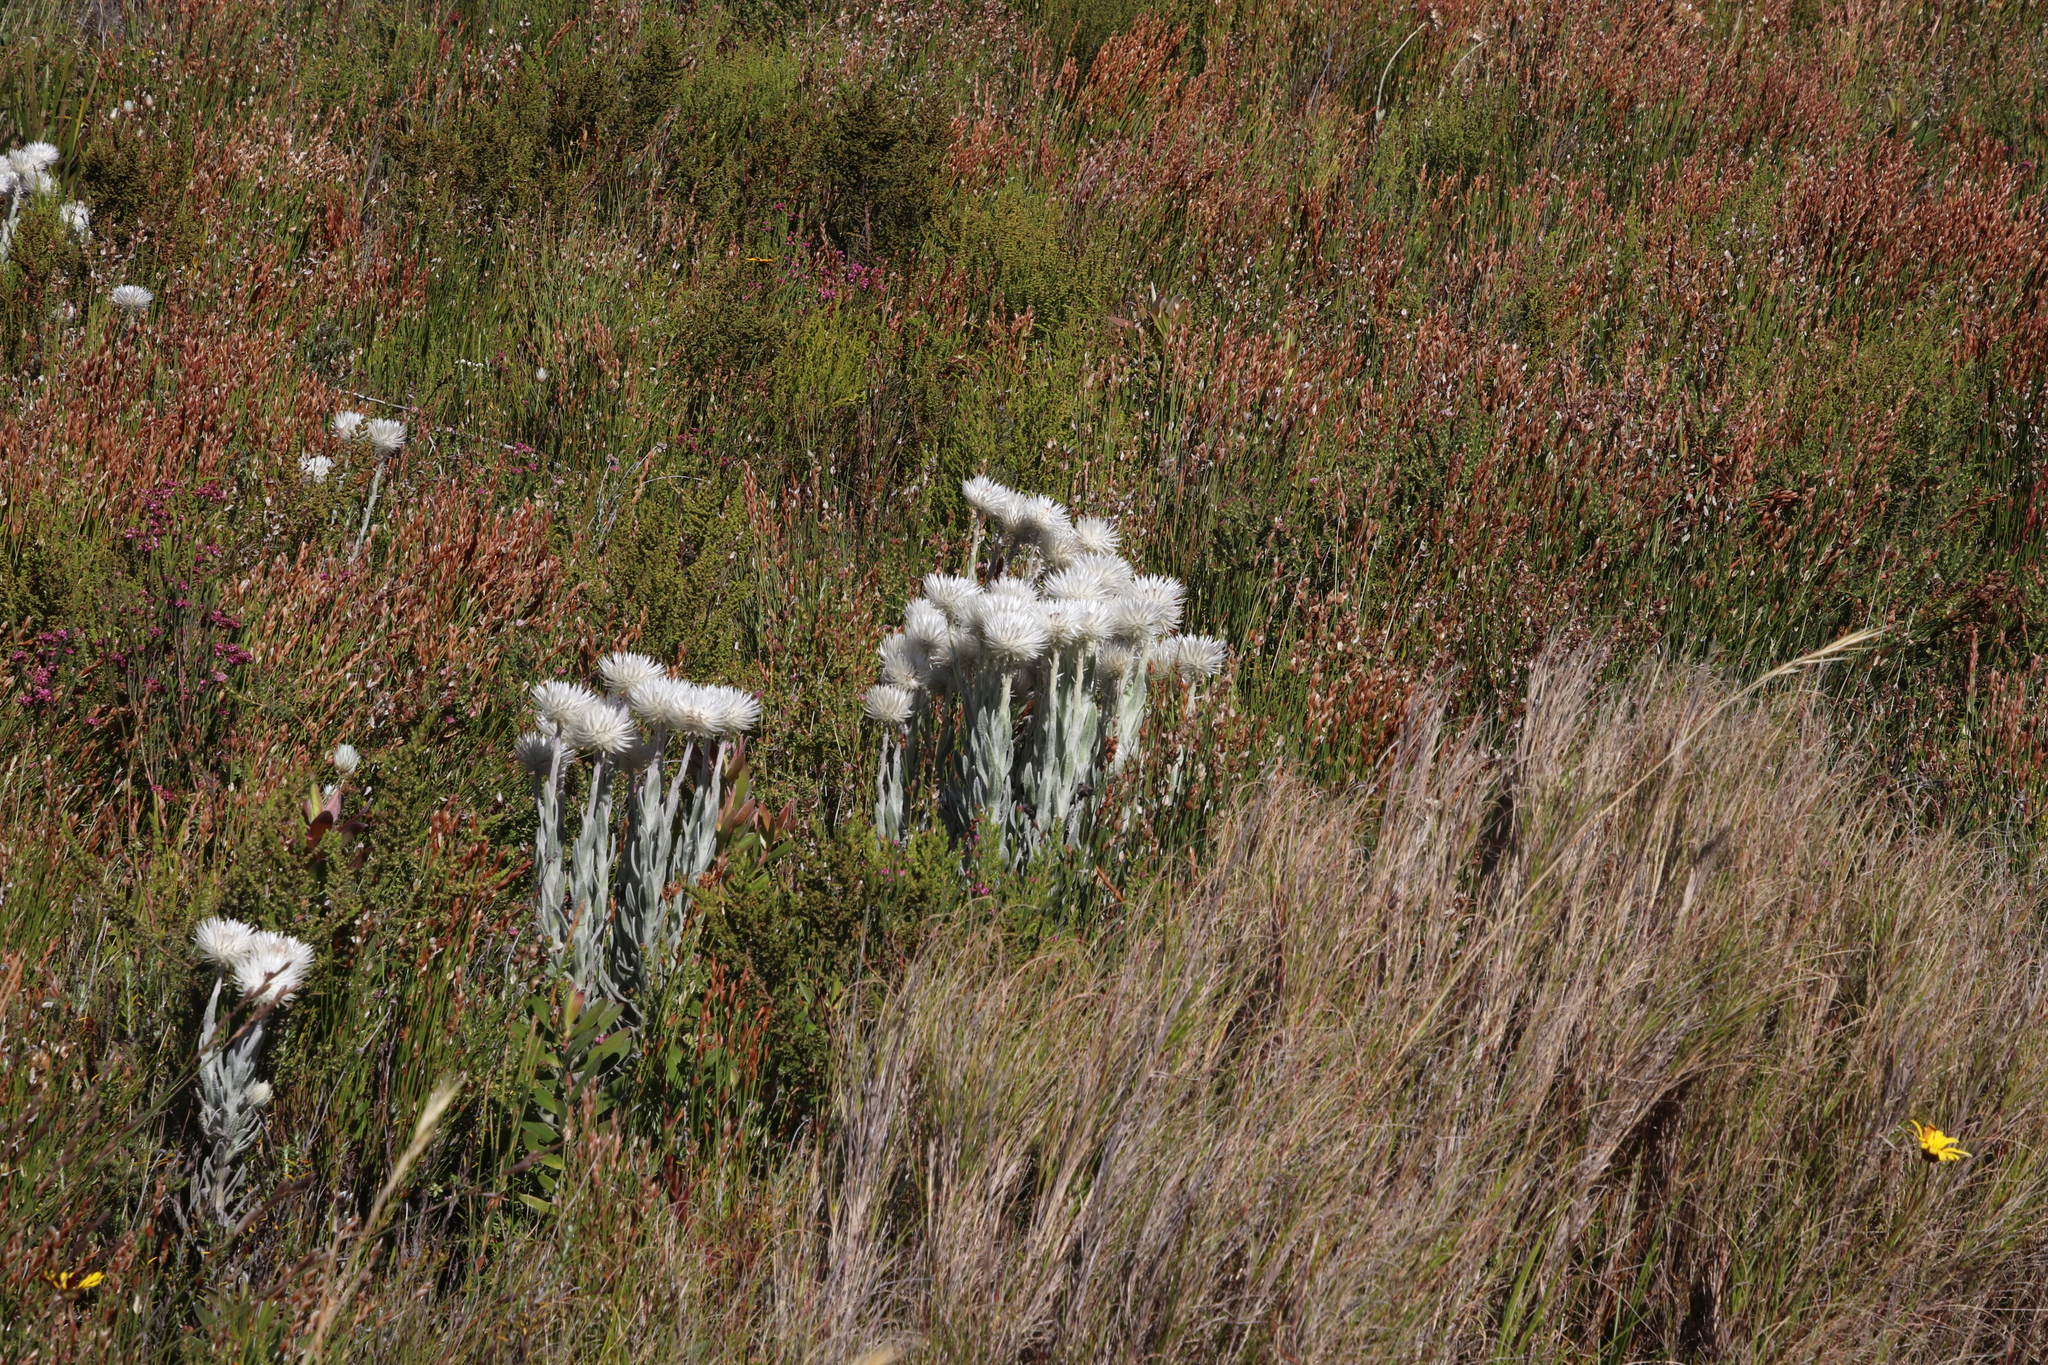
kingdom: Plantae
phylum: Tracheophyta
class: Magnoliopsida
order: Asterales
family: Asteraceae
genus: Syncarpha
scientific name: Syncarpha vestita
